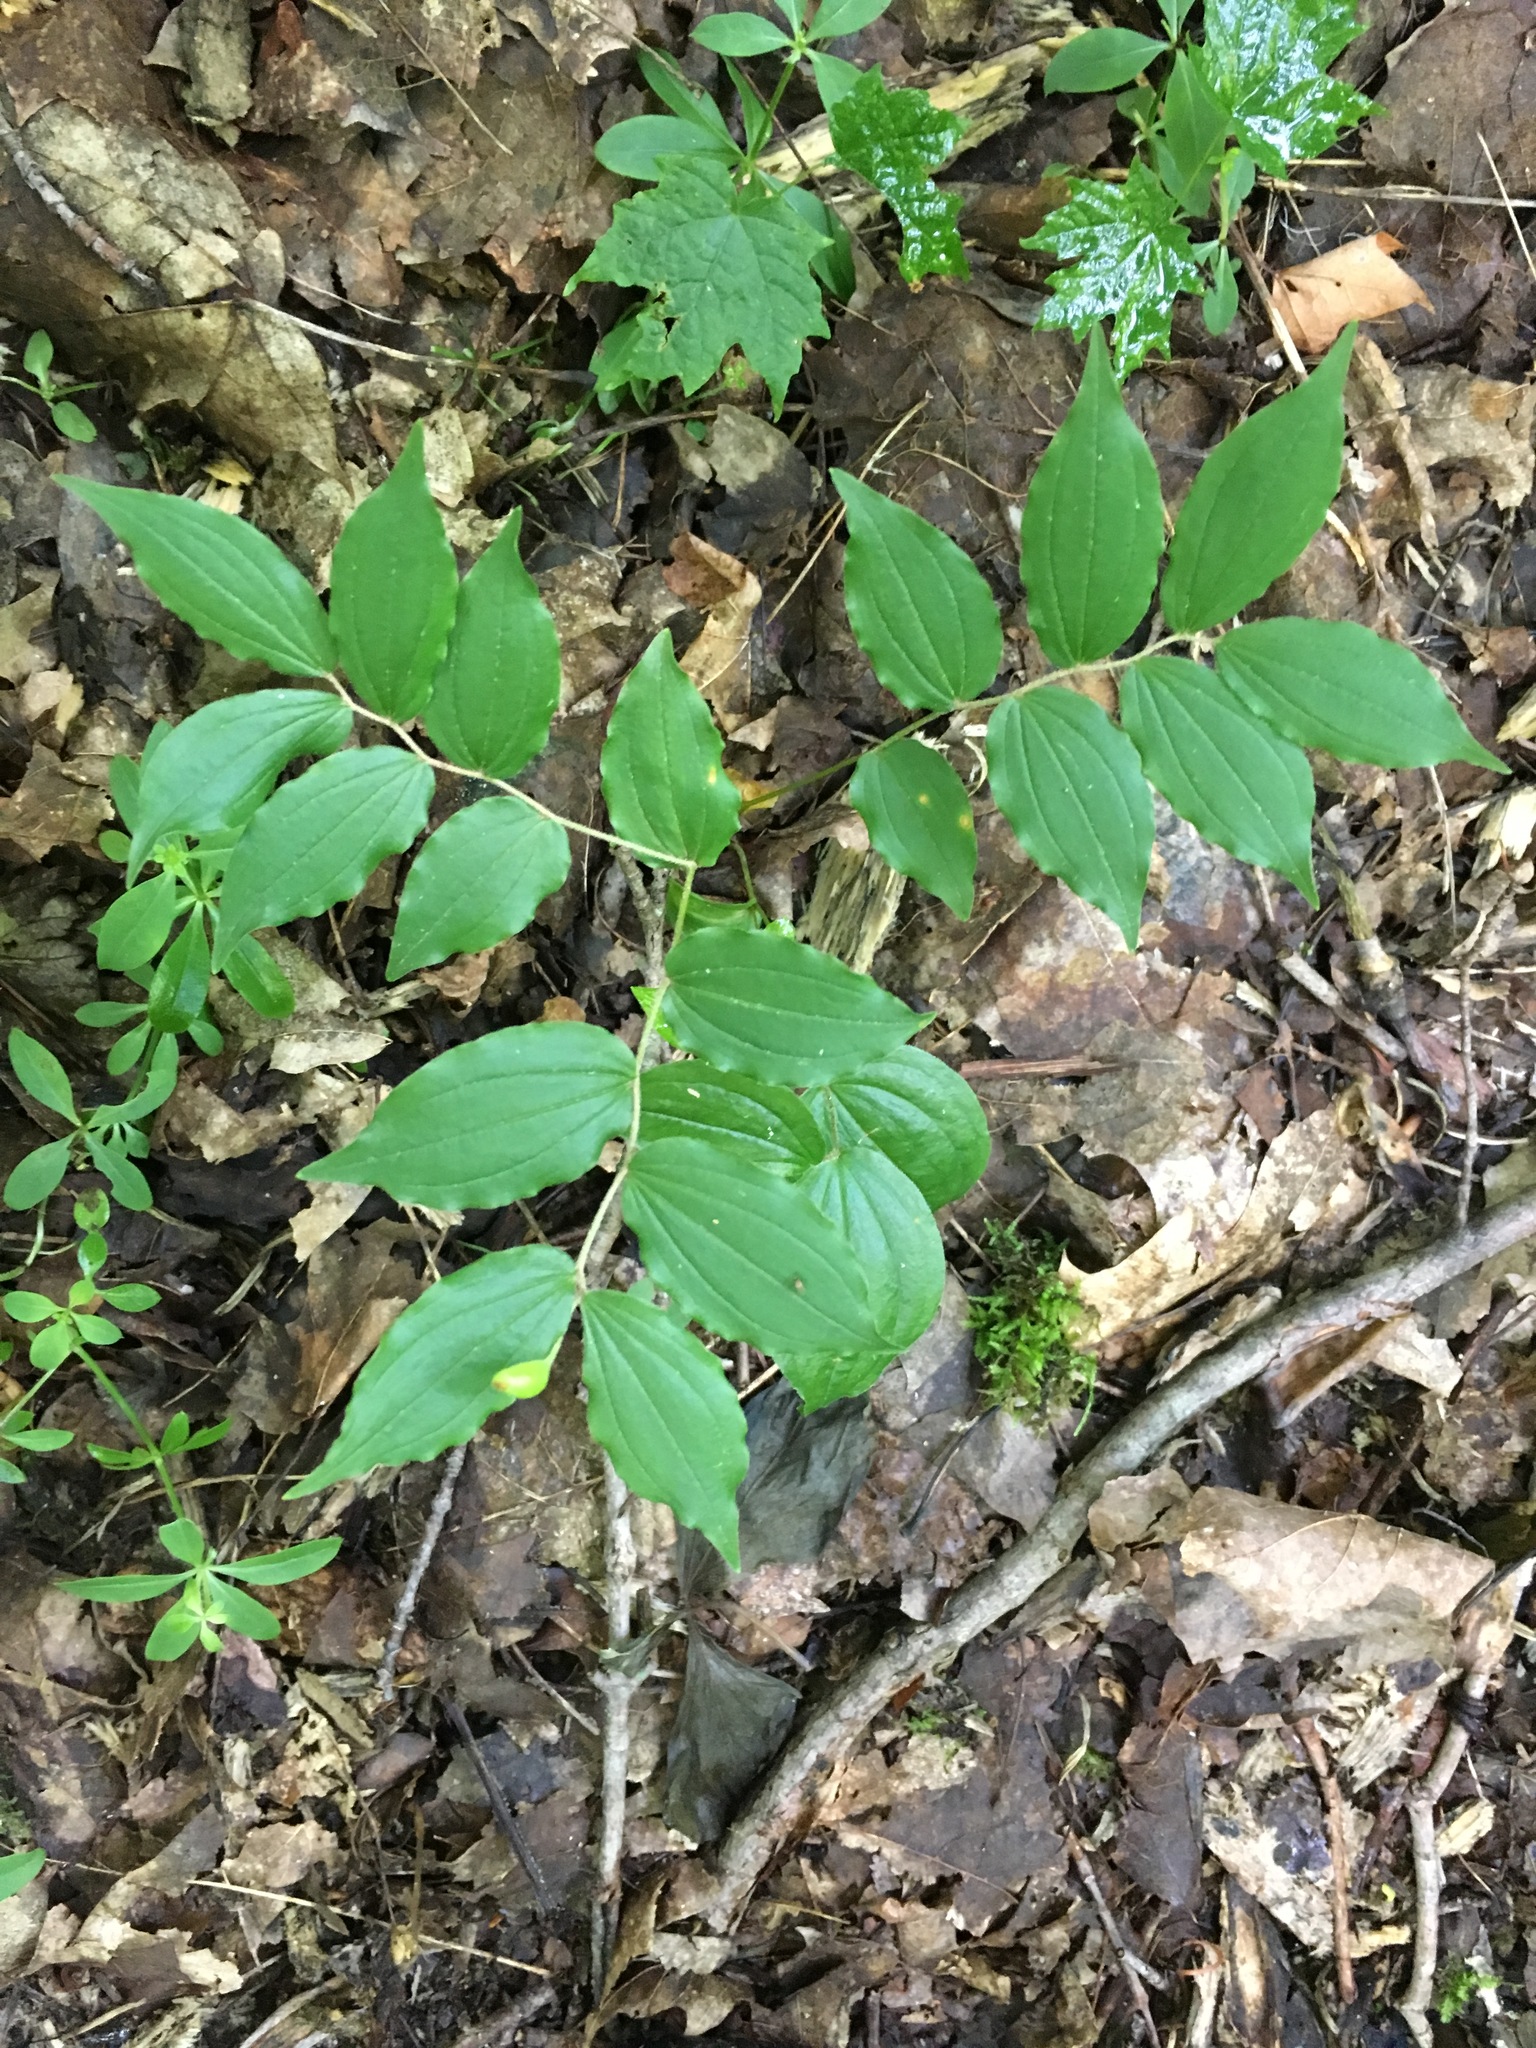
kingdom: Plantae
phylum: Tracheophyta
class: Liliopsida
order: Liliales
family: Liliaceae
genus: Prosartes
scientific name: Prosartes lanuginosa
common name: Hairy mandarin
